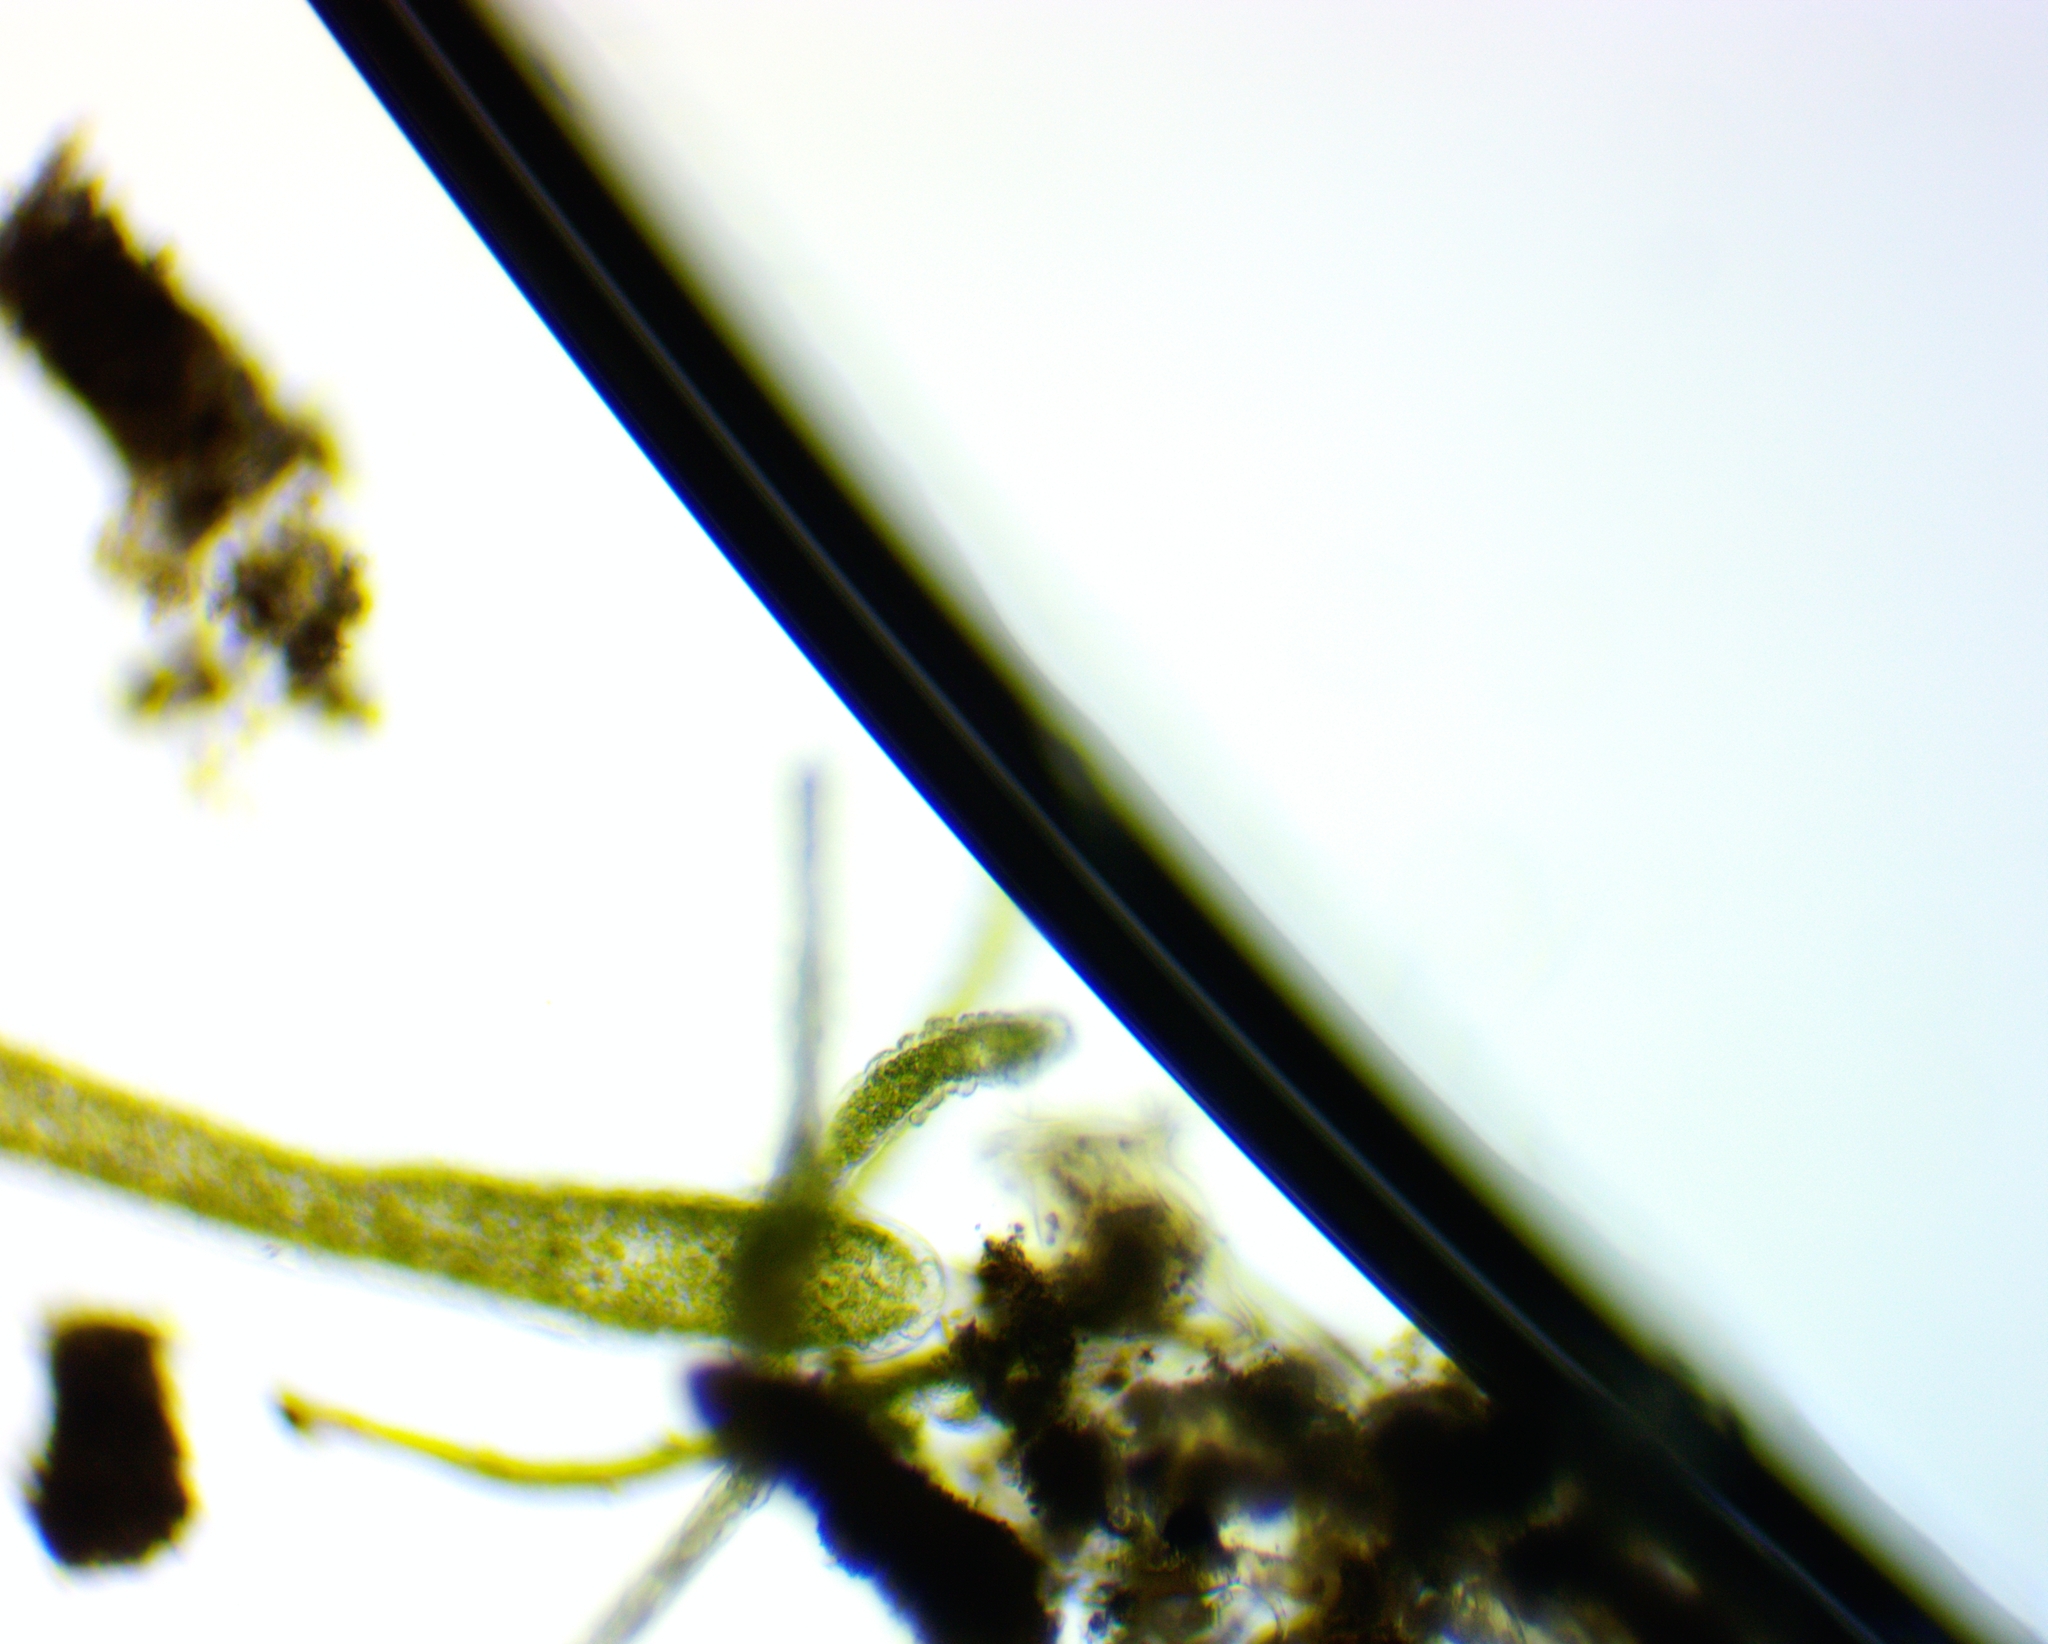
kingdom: Animalia
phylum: Cnidaria
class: Hydrozoa
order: Anthoathecata
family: Hydridae
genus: Hydra
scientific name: Hydra viridissima
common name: Green hydra
